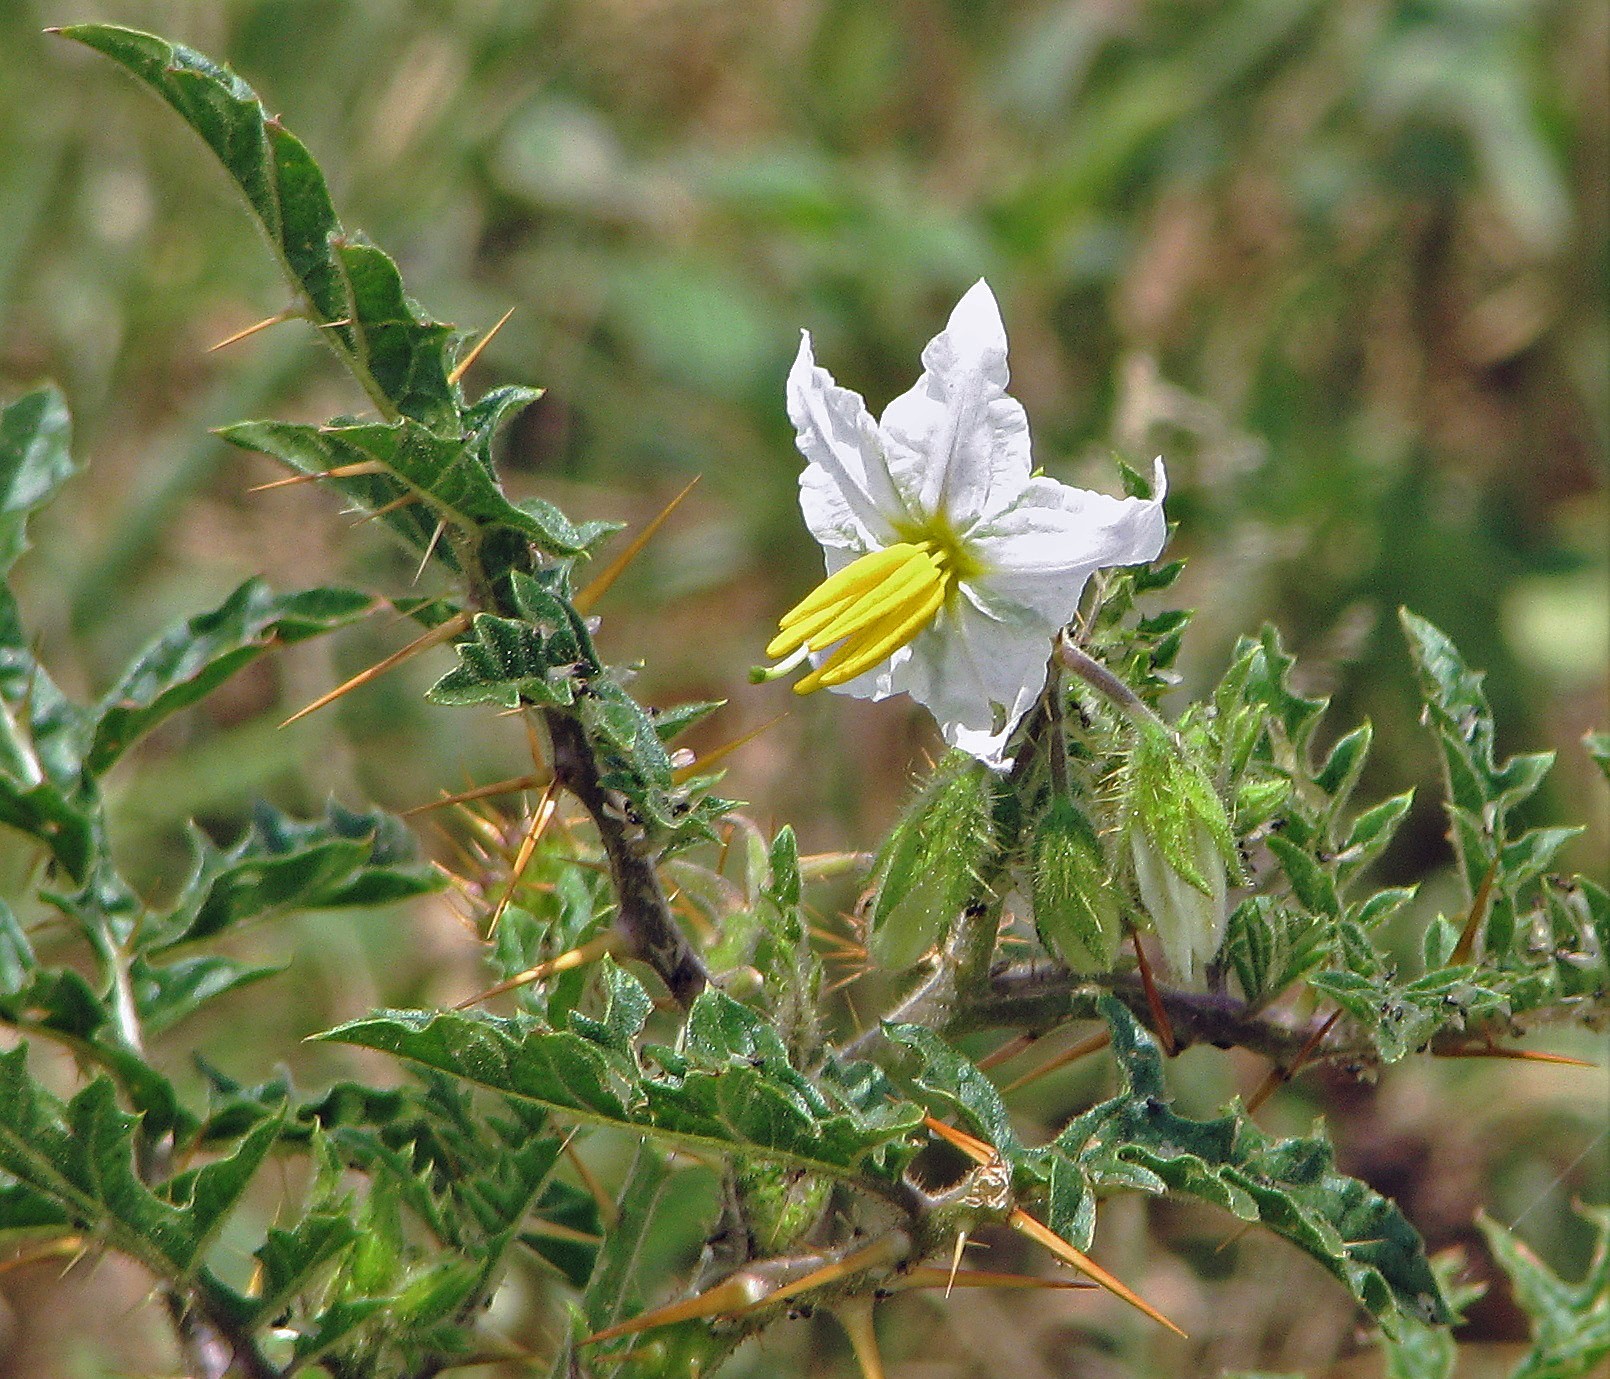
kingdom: Plantae
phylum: Tracheophyta
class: Magnoliopsida
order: Solanales
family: Solanaceae
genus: Solanum
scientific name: Solanum sisymbriifolium
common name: Red buffalo-bur
